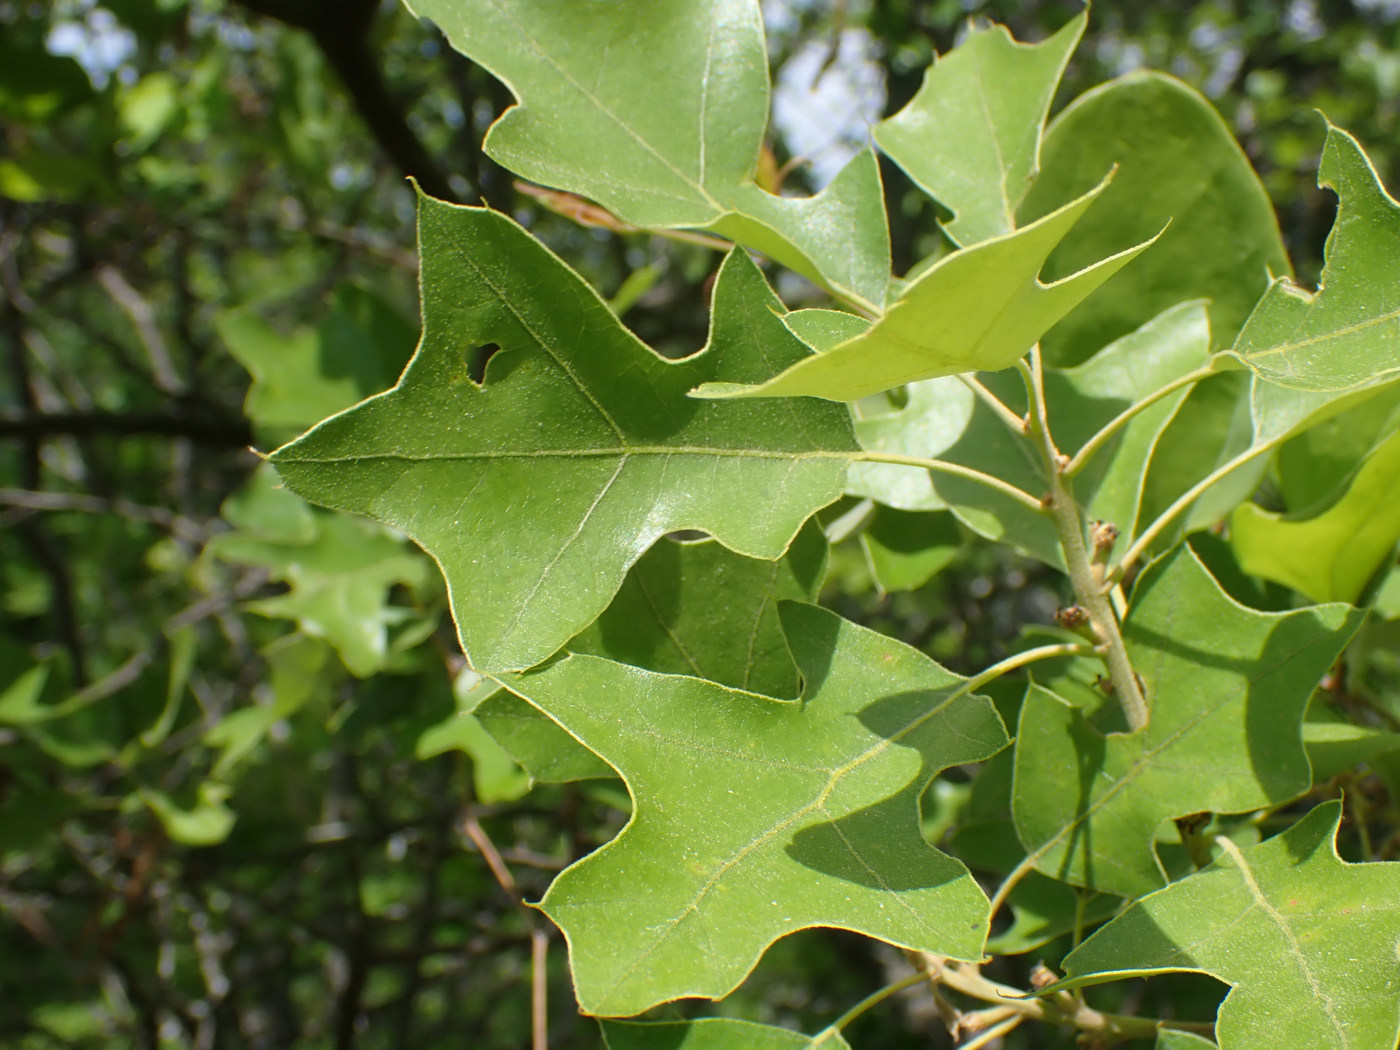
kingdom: Plantae
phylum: Tracheophyta
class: Magnoliopsida
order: Fagales
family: Fagaceae
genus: Quercus
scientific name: Quercus ilicifolia
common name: Bear oak
